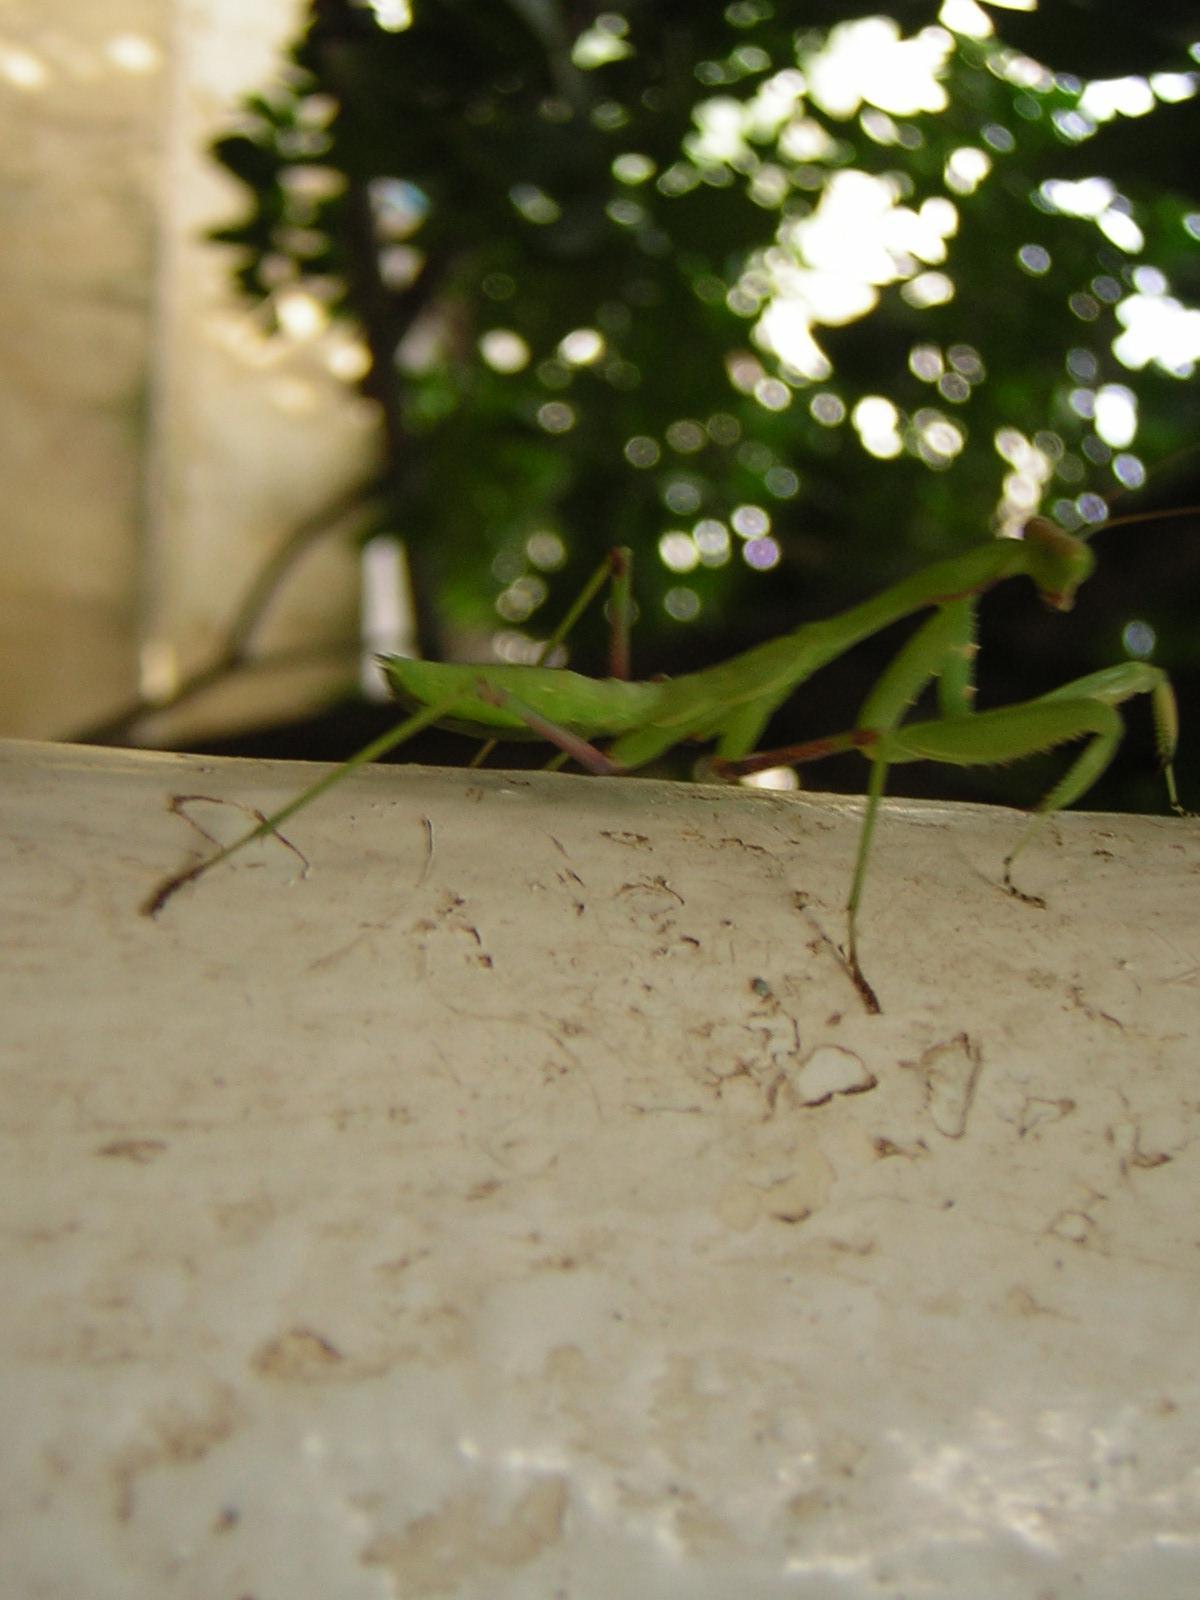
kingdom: Animalia
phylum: Arthropoda
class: Insecta
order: Mantodea
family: Mantidae
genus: Sphodromantis
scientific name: Sphodromantis viridis
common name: Giant african mantis
